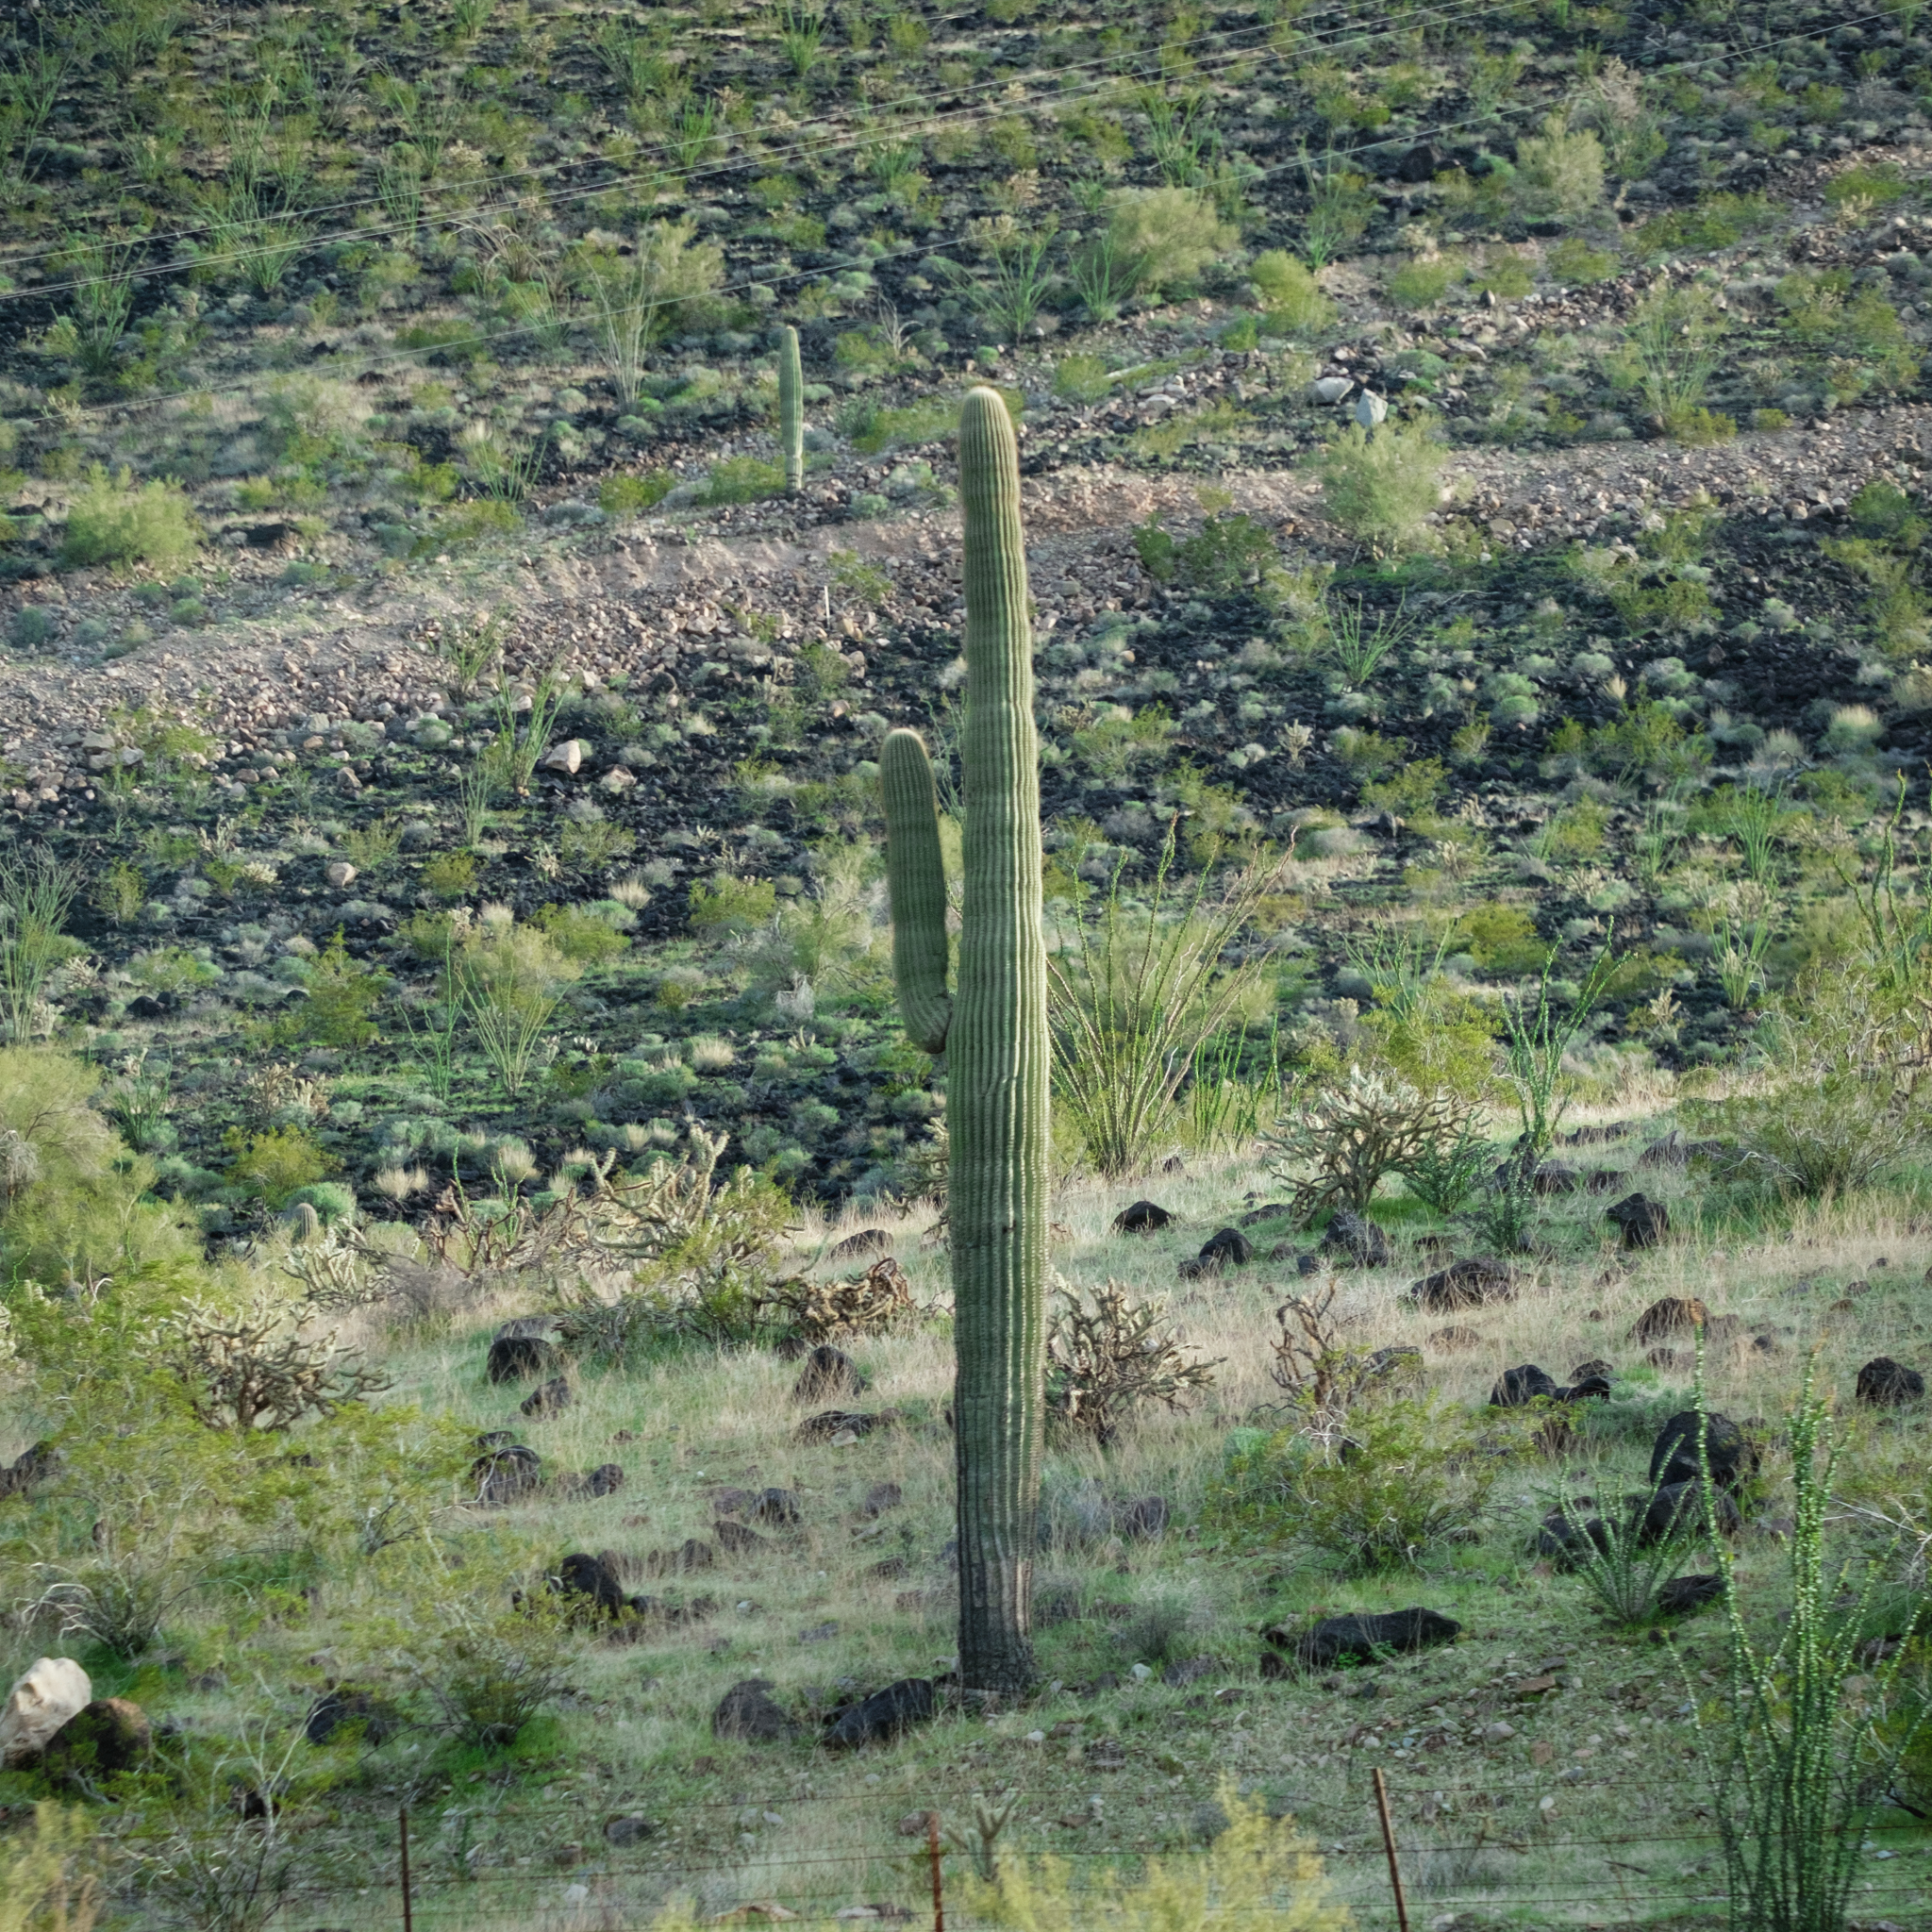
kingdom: Plantae
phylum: Tracheophyta
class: Magnoliopsida
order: Caryophyllales
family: Cactaceae
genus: Carnegiea
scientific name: Carnegiea gigantea
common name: Saguaro
